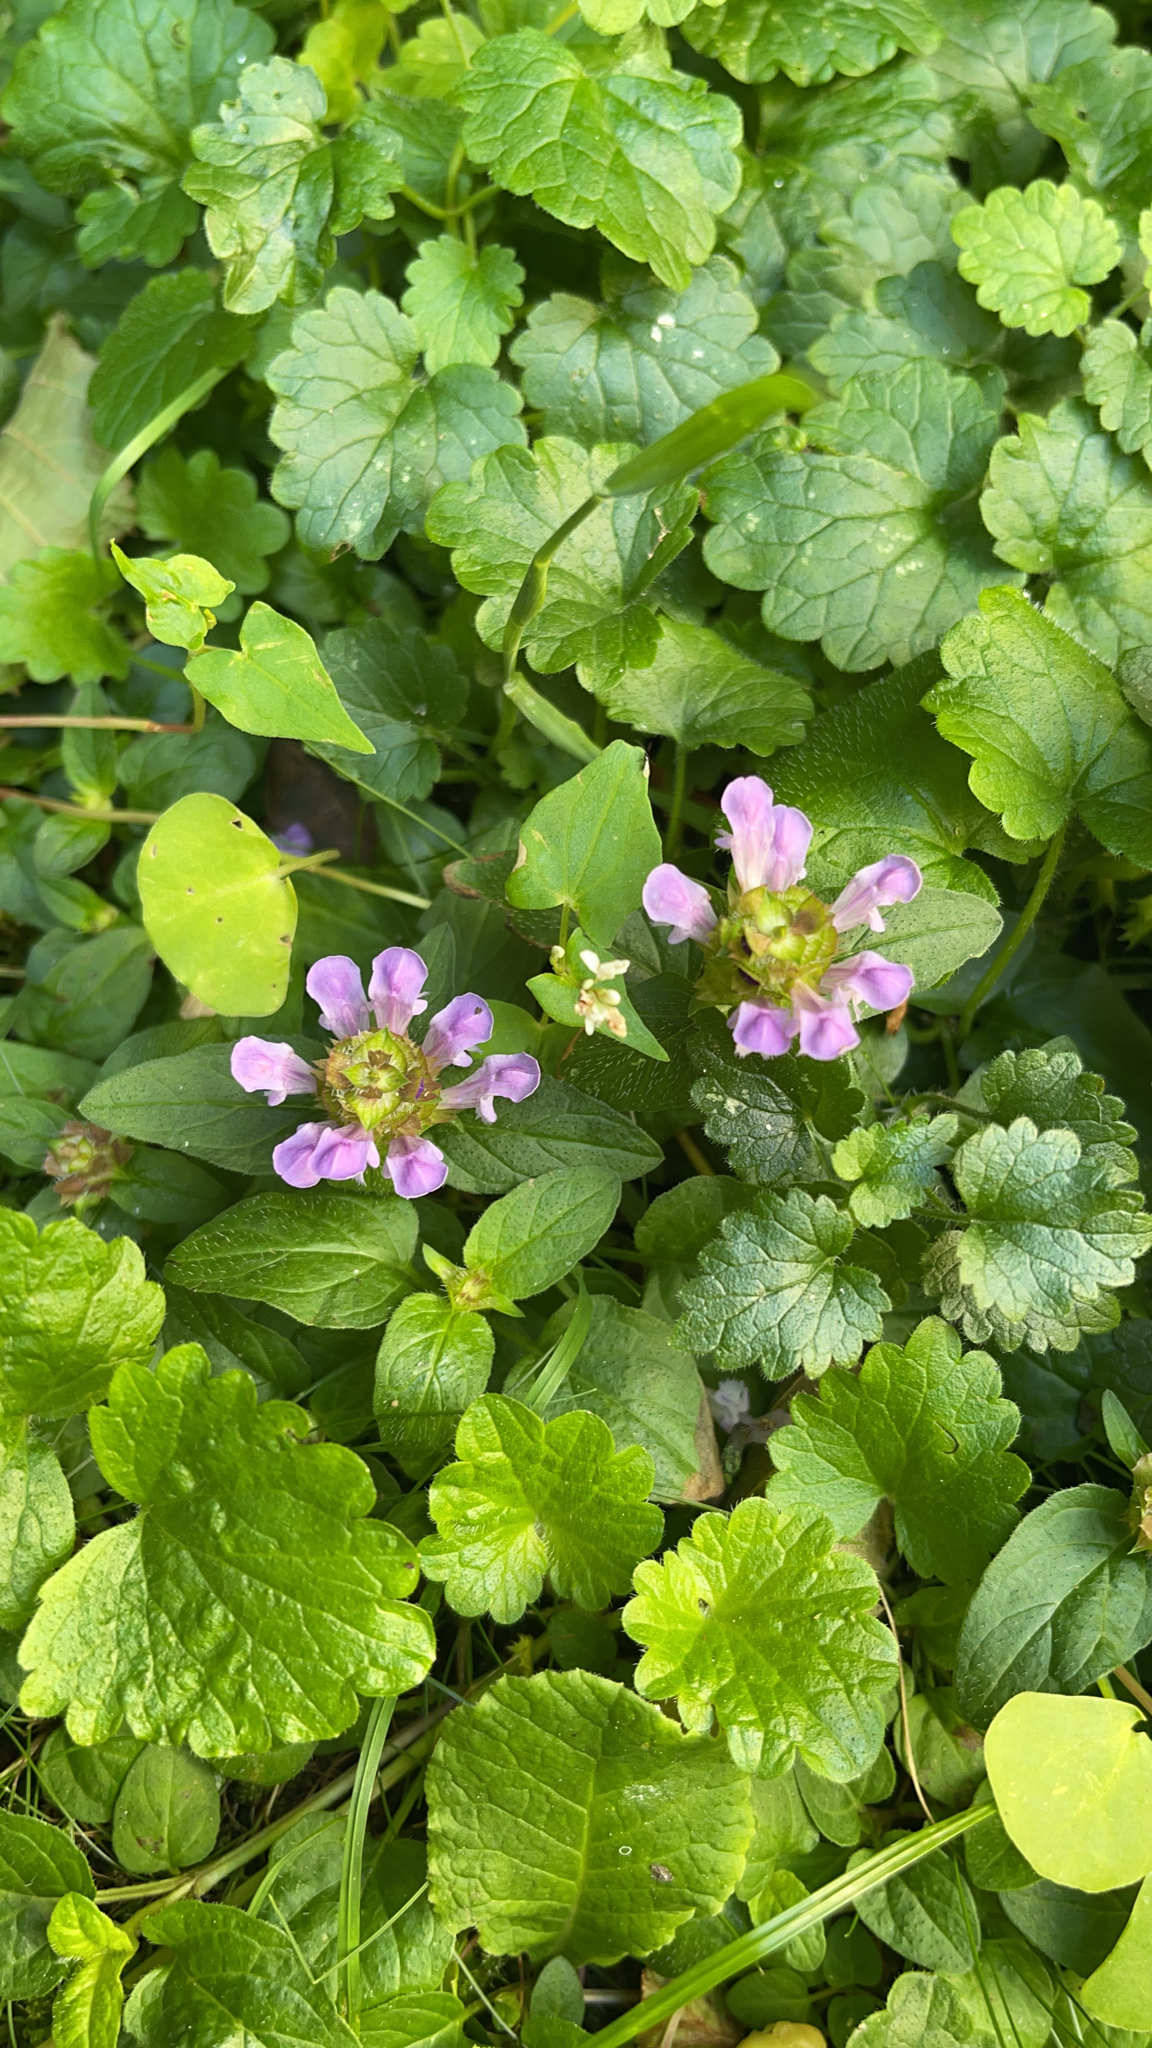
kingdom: Plantae
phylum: Tracheophyta
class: Magnoliopsida
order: Lamiales
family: Lamiaceae
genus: Prunella
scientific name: Prunella vulgaris
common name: Heal-all
